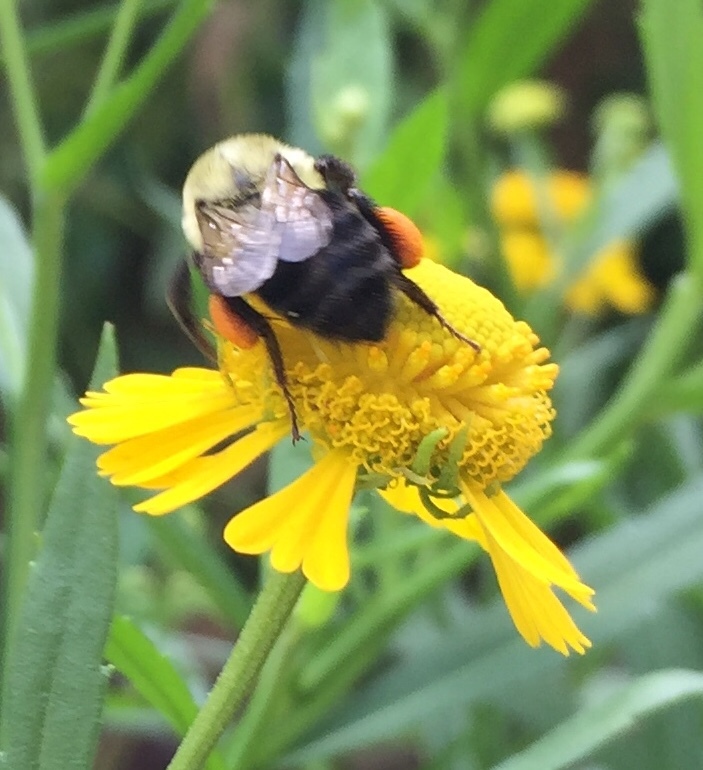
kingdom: Animalia
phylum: Arthropoda
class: Insecta
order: Hymenoptera
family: Apidae
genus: Bombus
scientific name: Bombus impatiens
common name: Common eastern bumble bee
